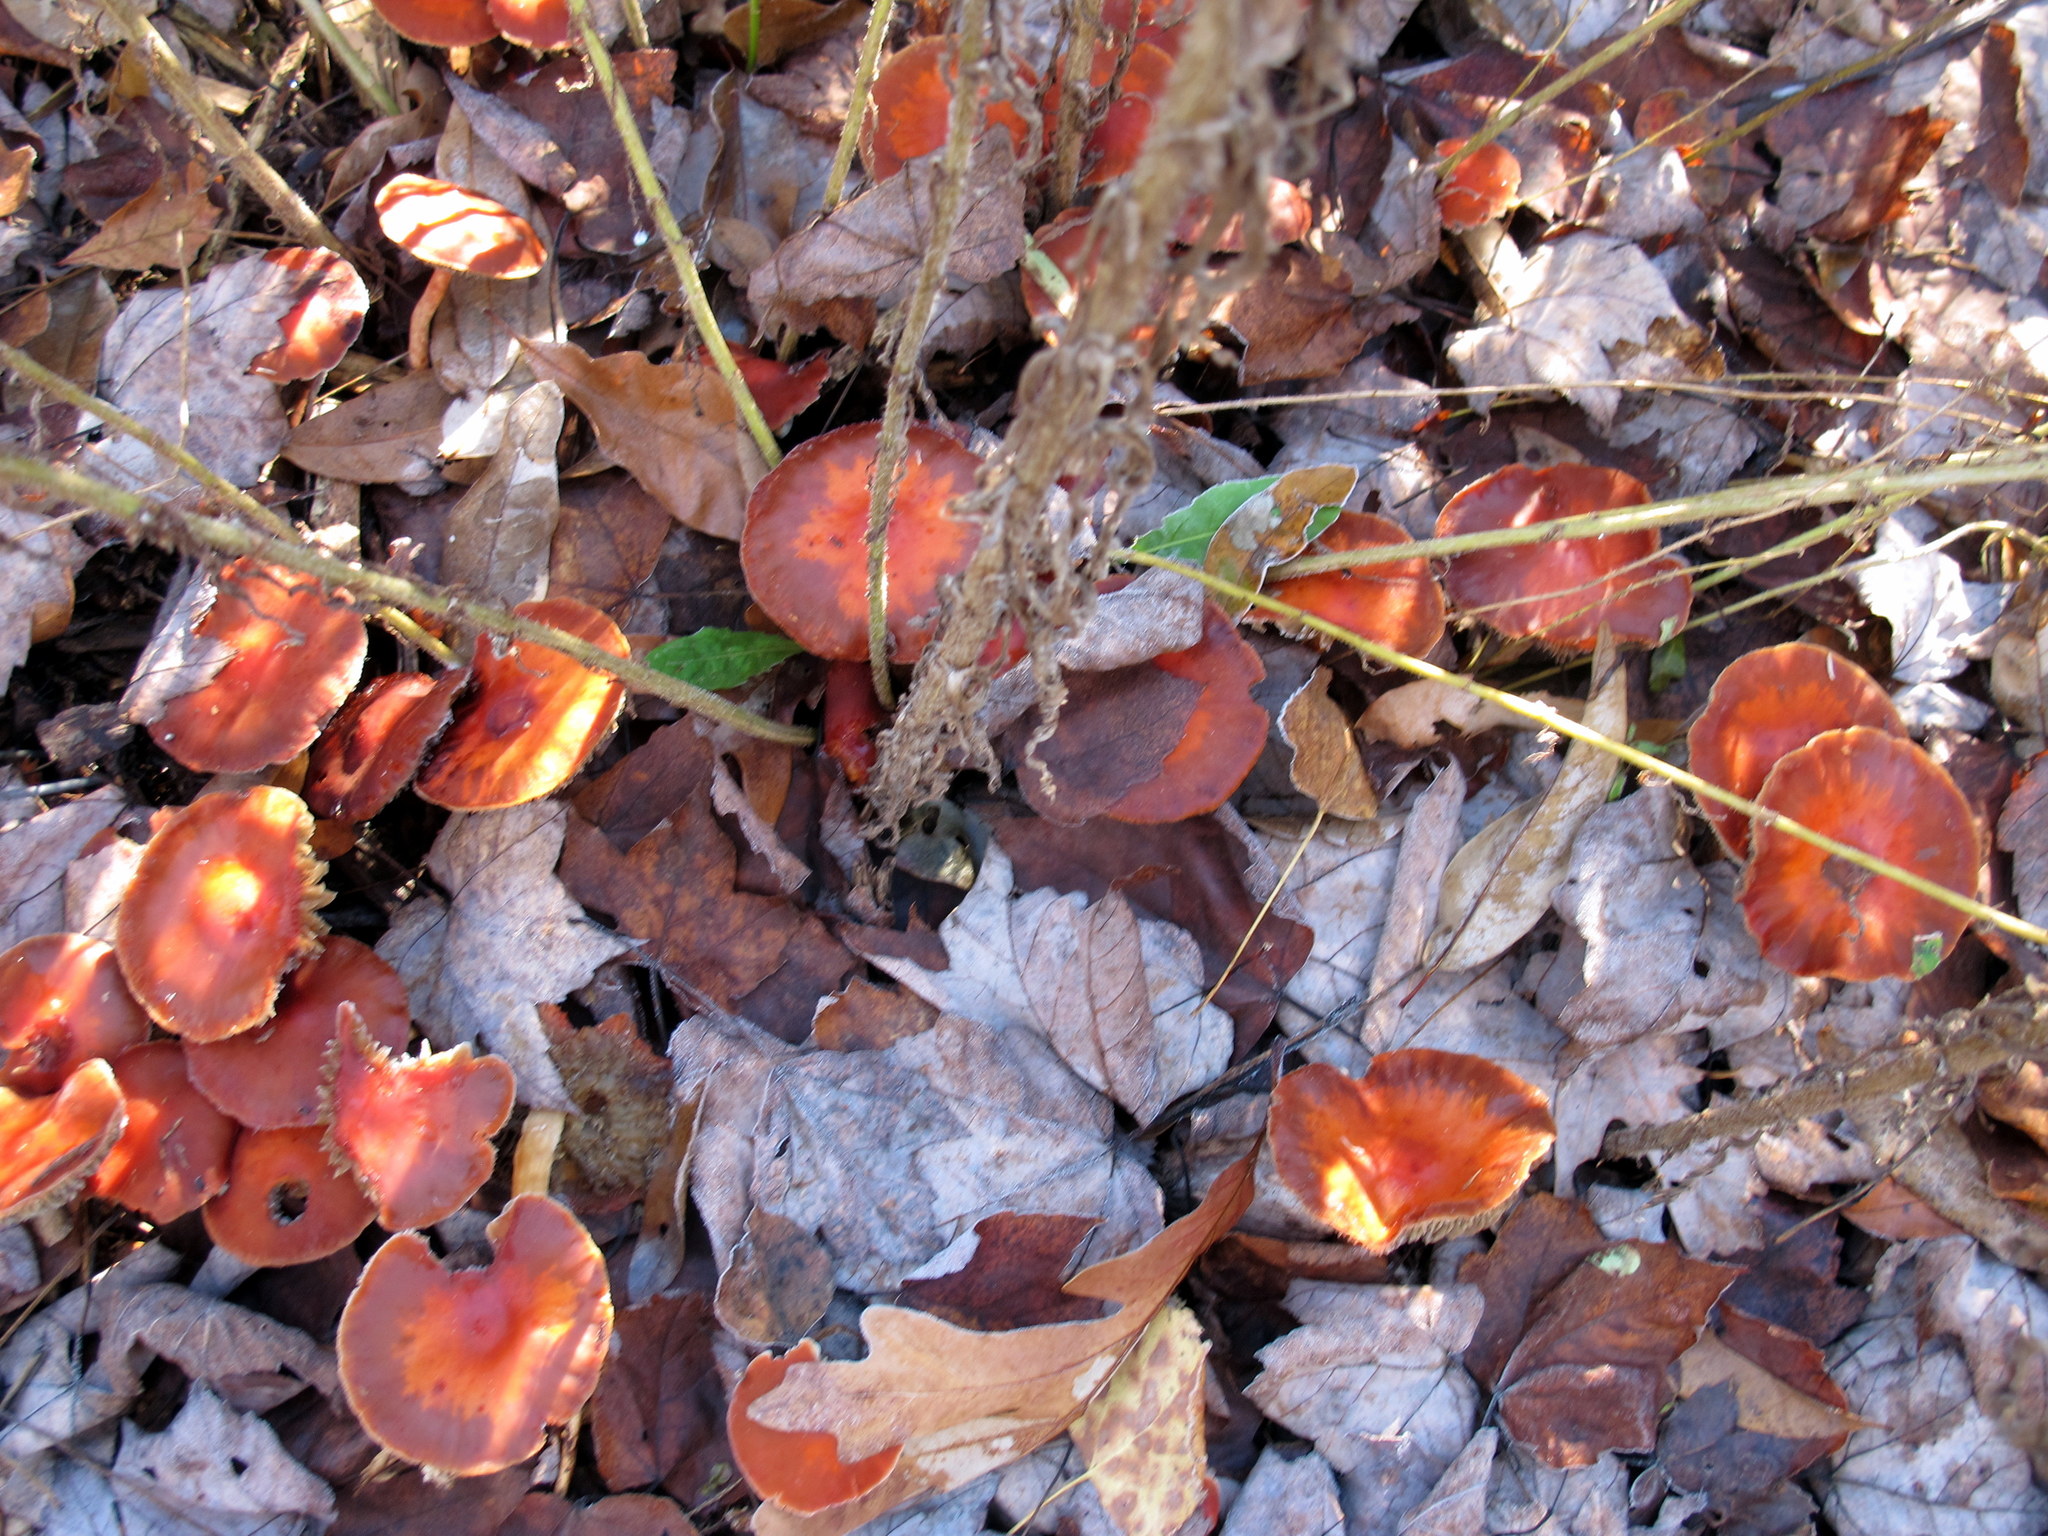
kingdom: Fungi
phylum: Basidiomycota
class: Agaricomycetes
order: Agaricales
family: Strophariaceae
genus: Leratiomyces
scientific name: Leratiomyces ceres
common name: Redlead roundhead
